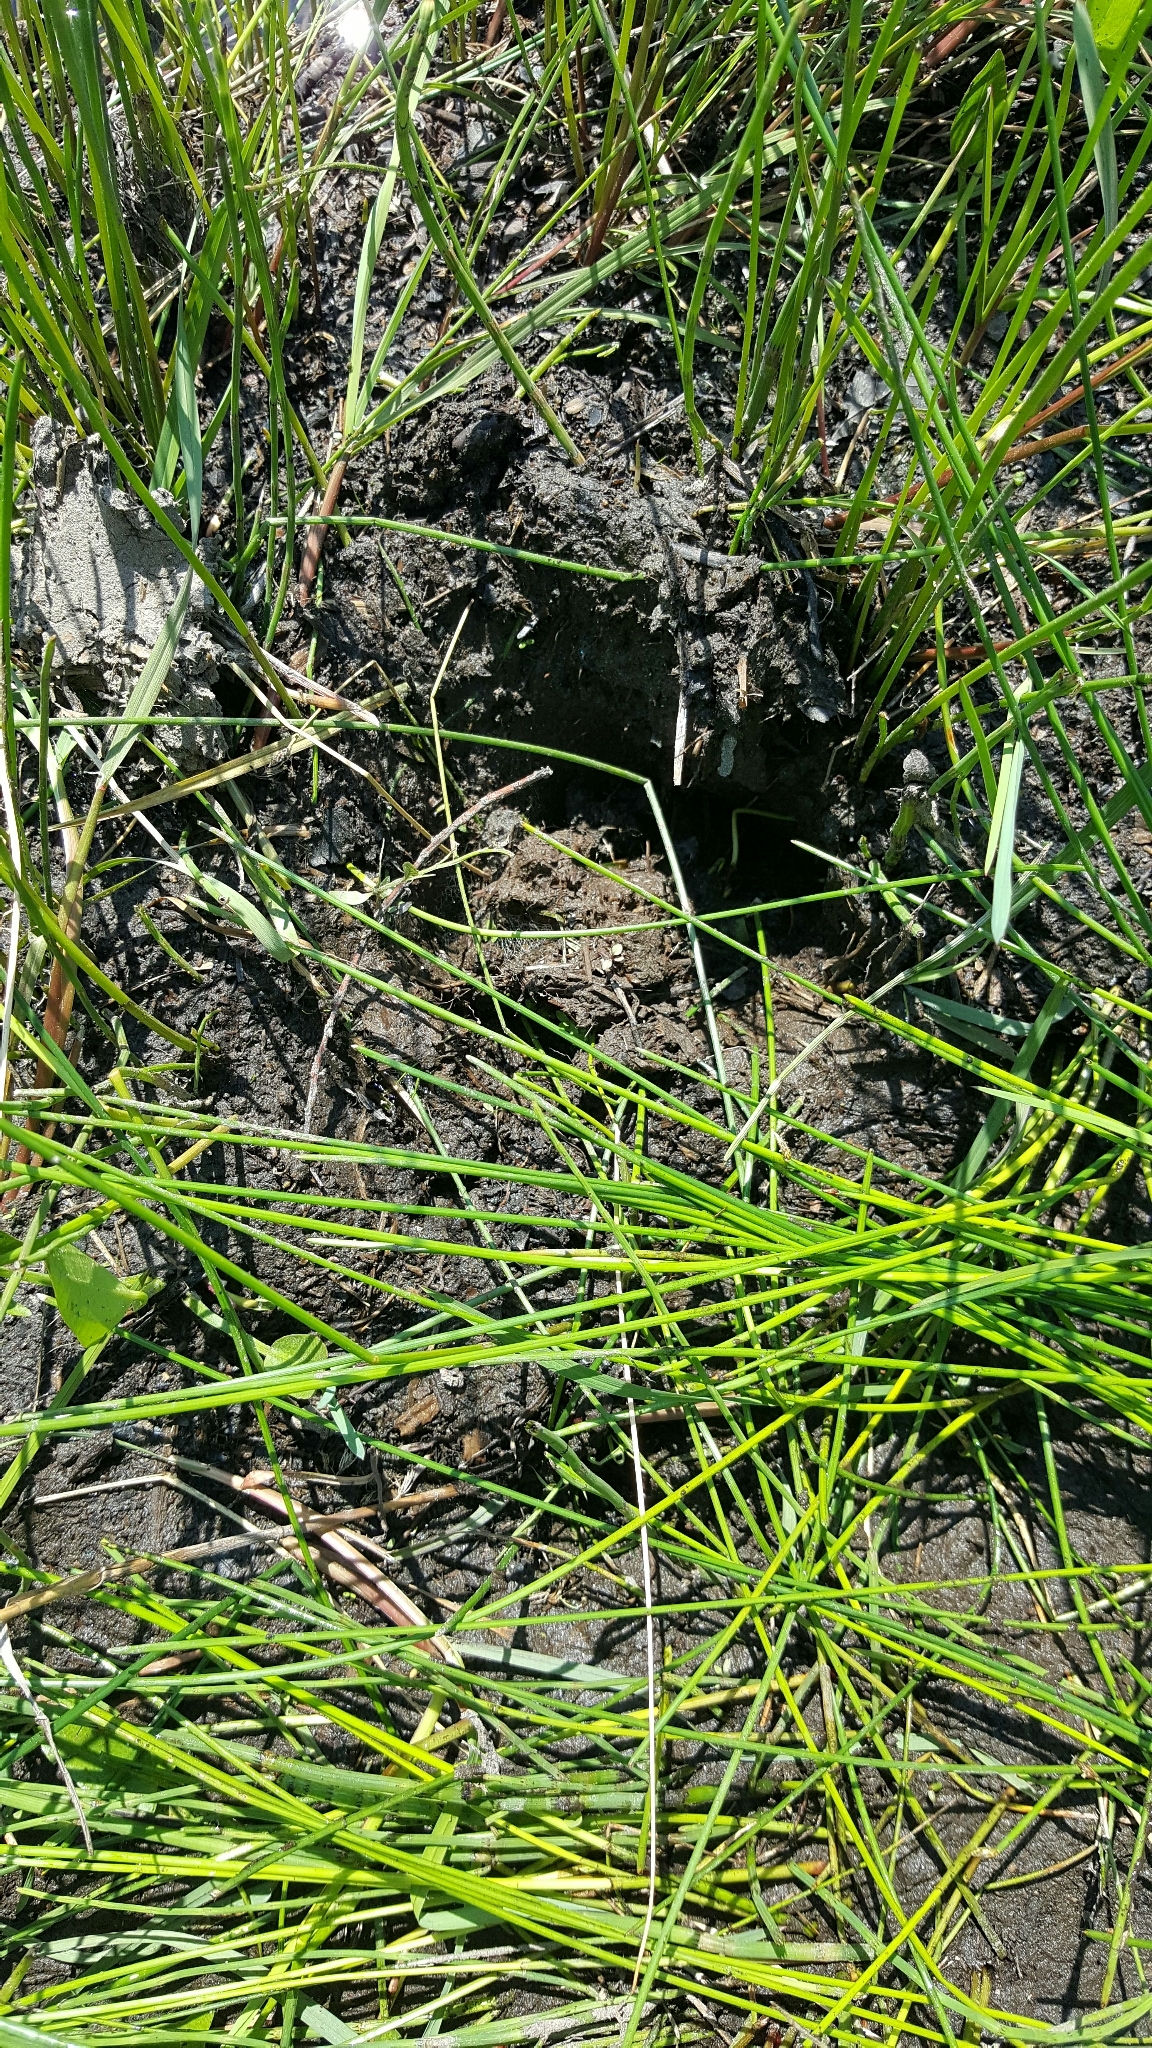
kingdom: Animalia
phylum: Chordata
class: Mammalia
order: Artiodactyla
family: Cervidae
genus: Alces
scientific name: Alces alces
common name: Moose
